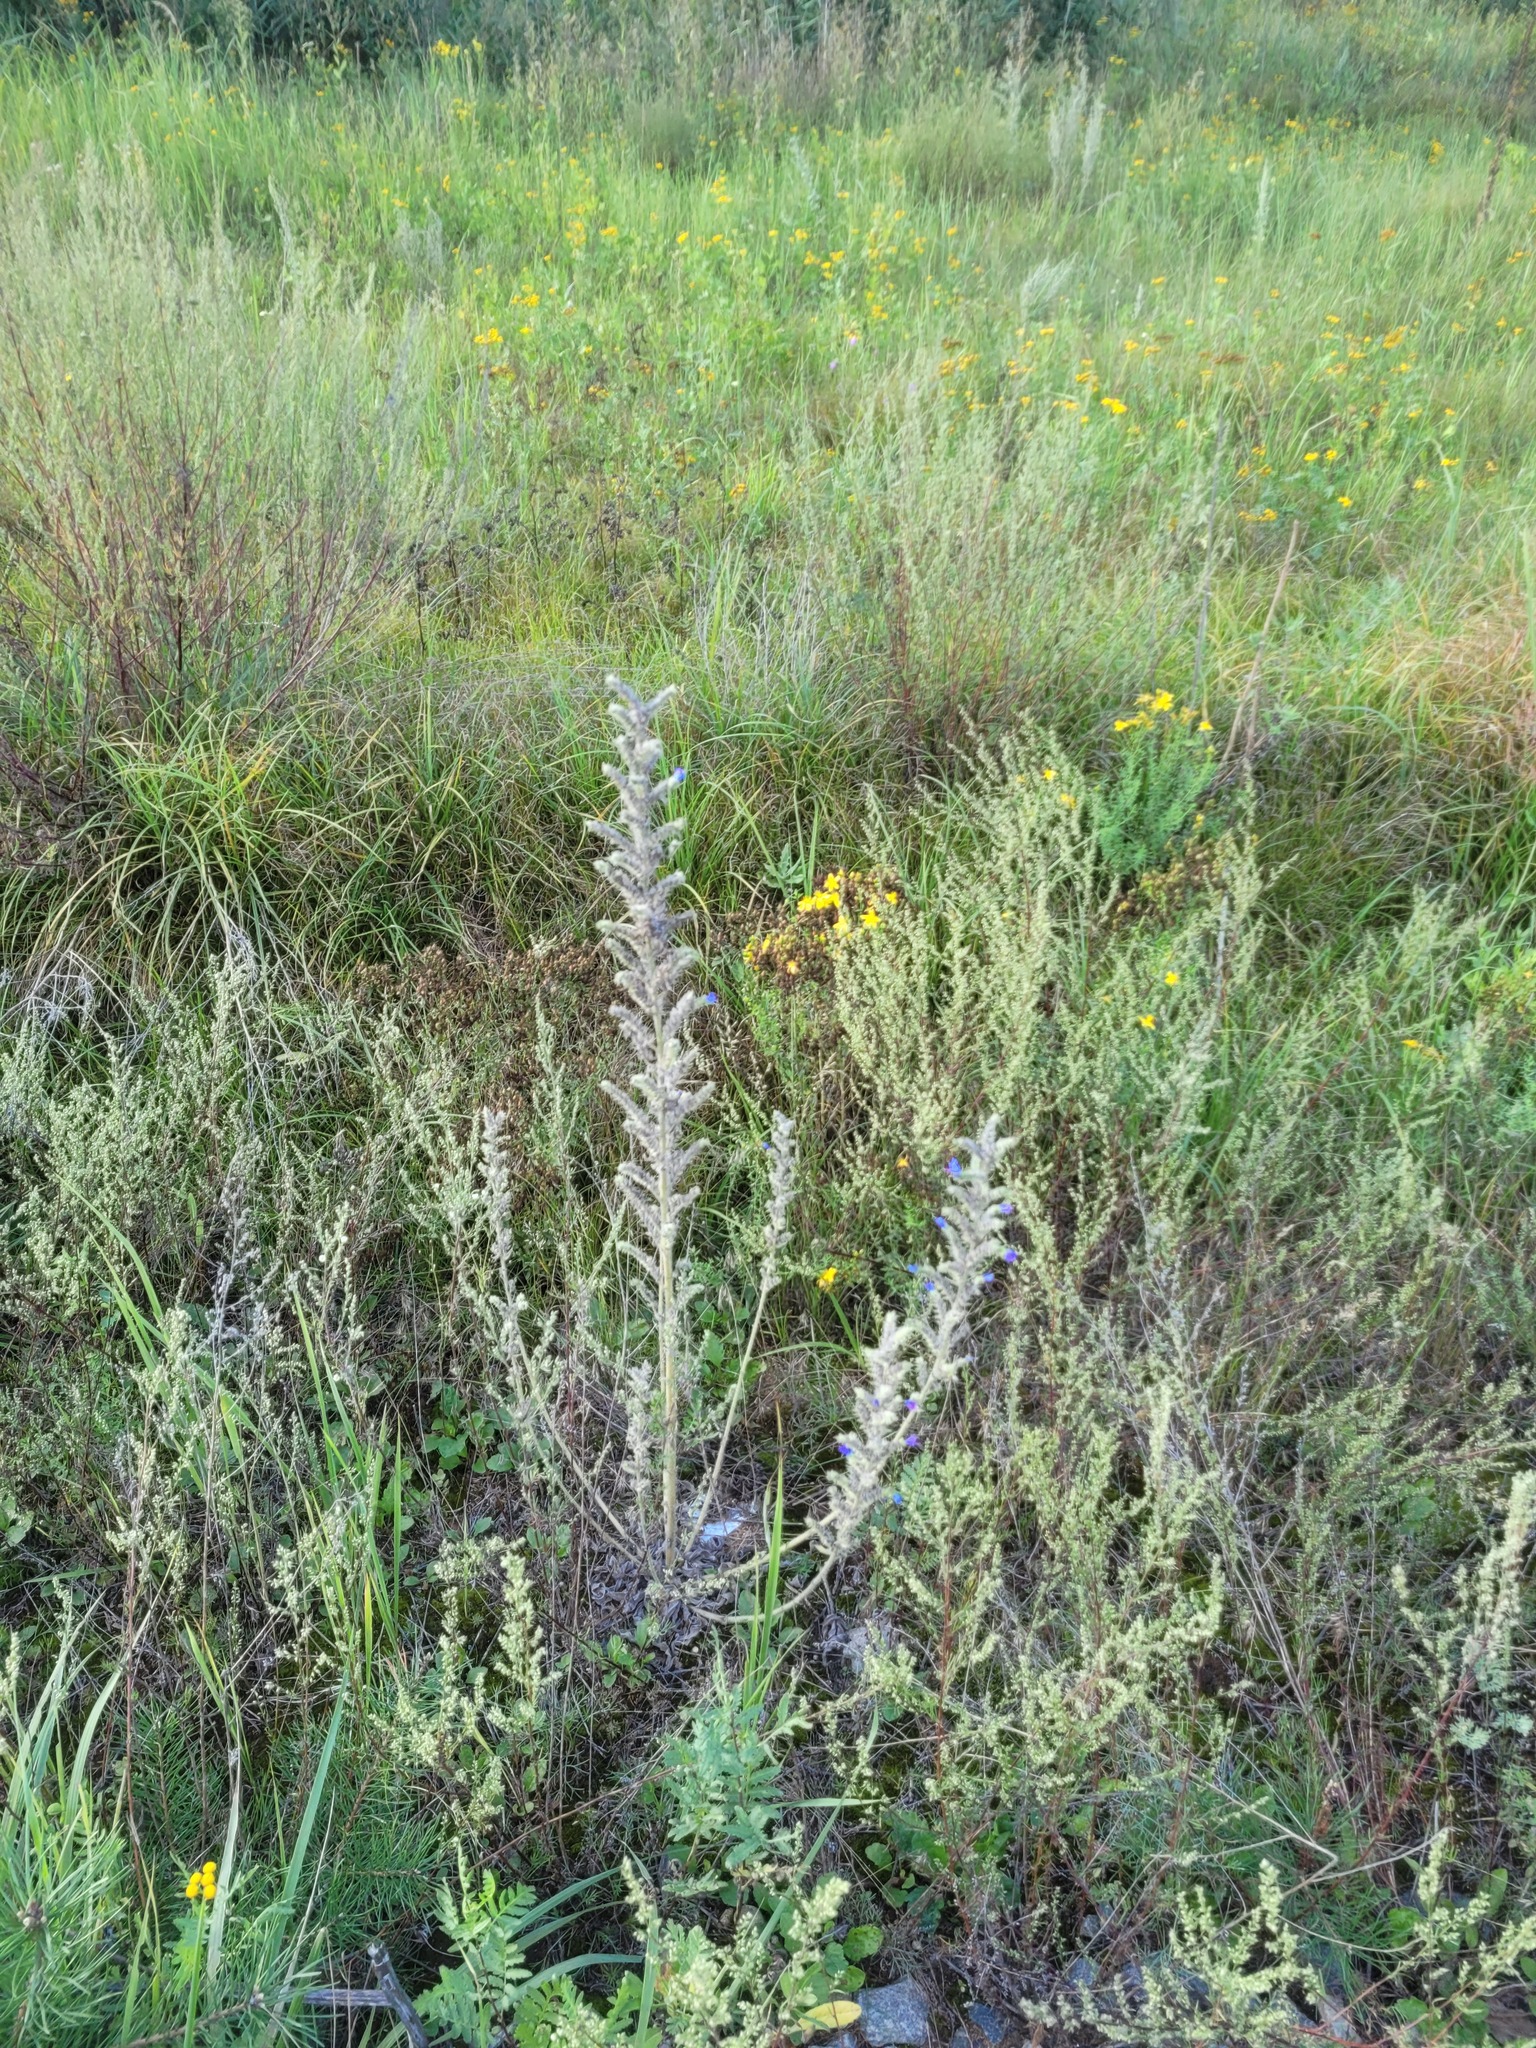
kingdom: Plantae
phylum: Tracheophyta
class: Magnoliopsida
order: Boraginales
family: Boraginaceae
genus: Echium
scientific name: Echium vulgare
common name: Common viper's bugloss
